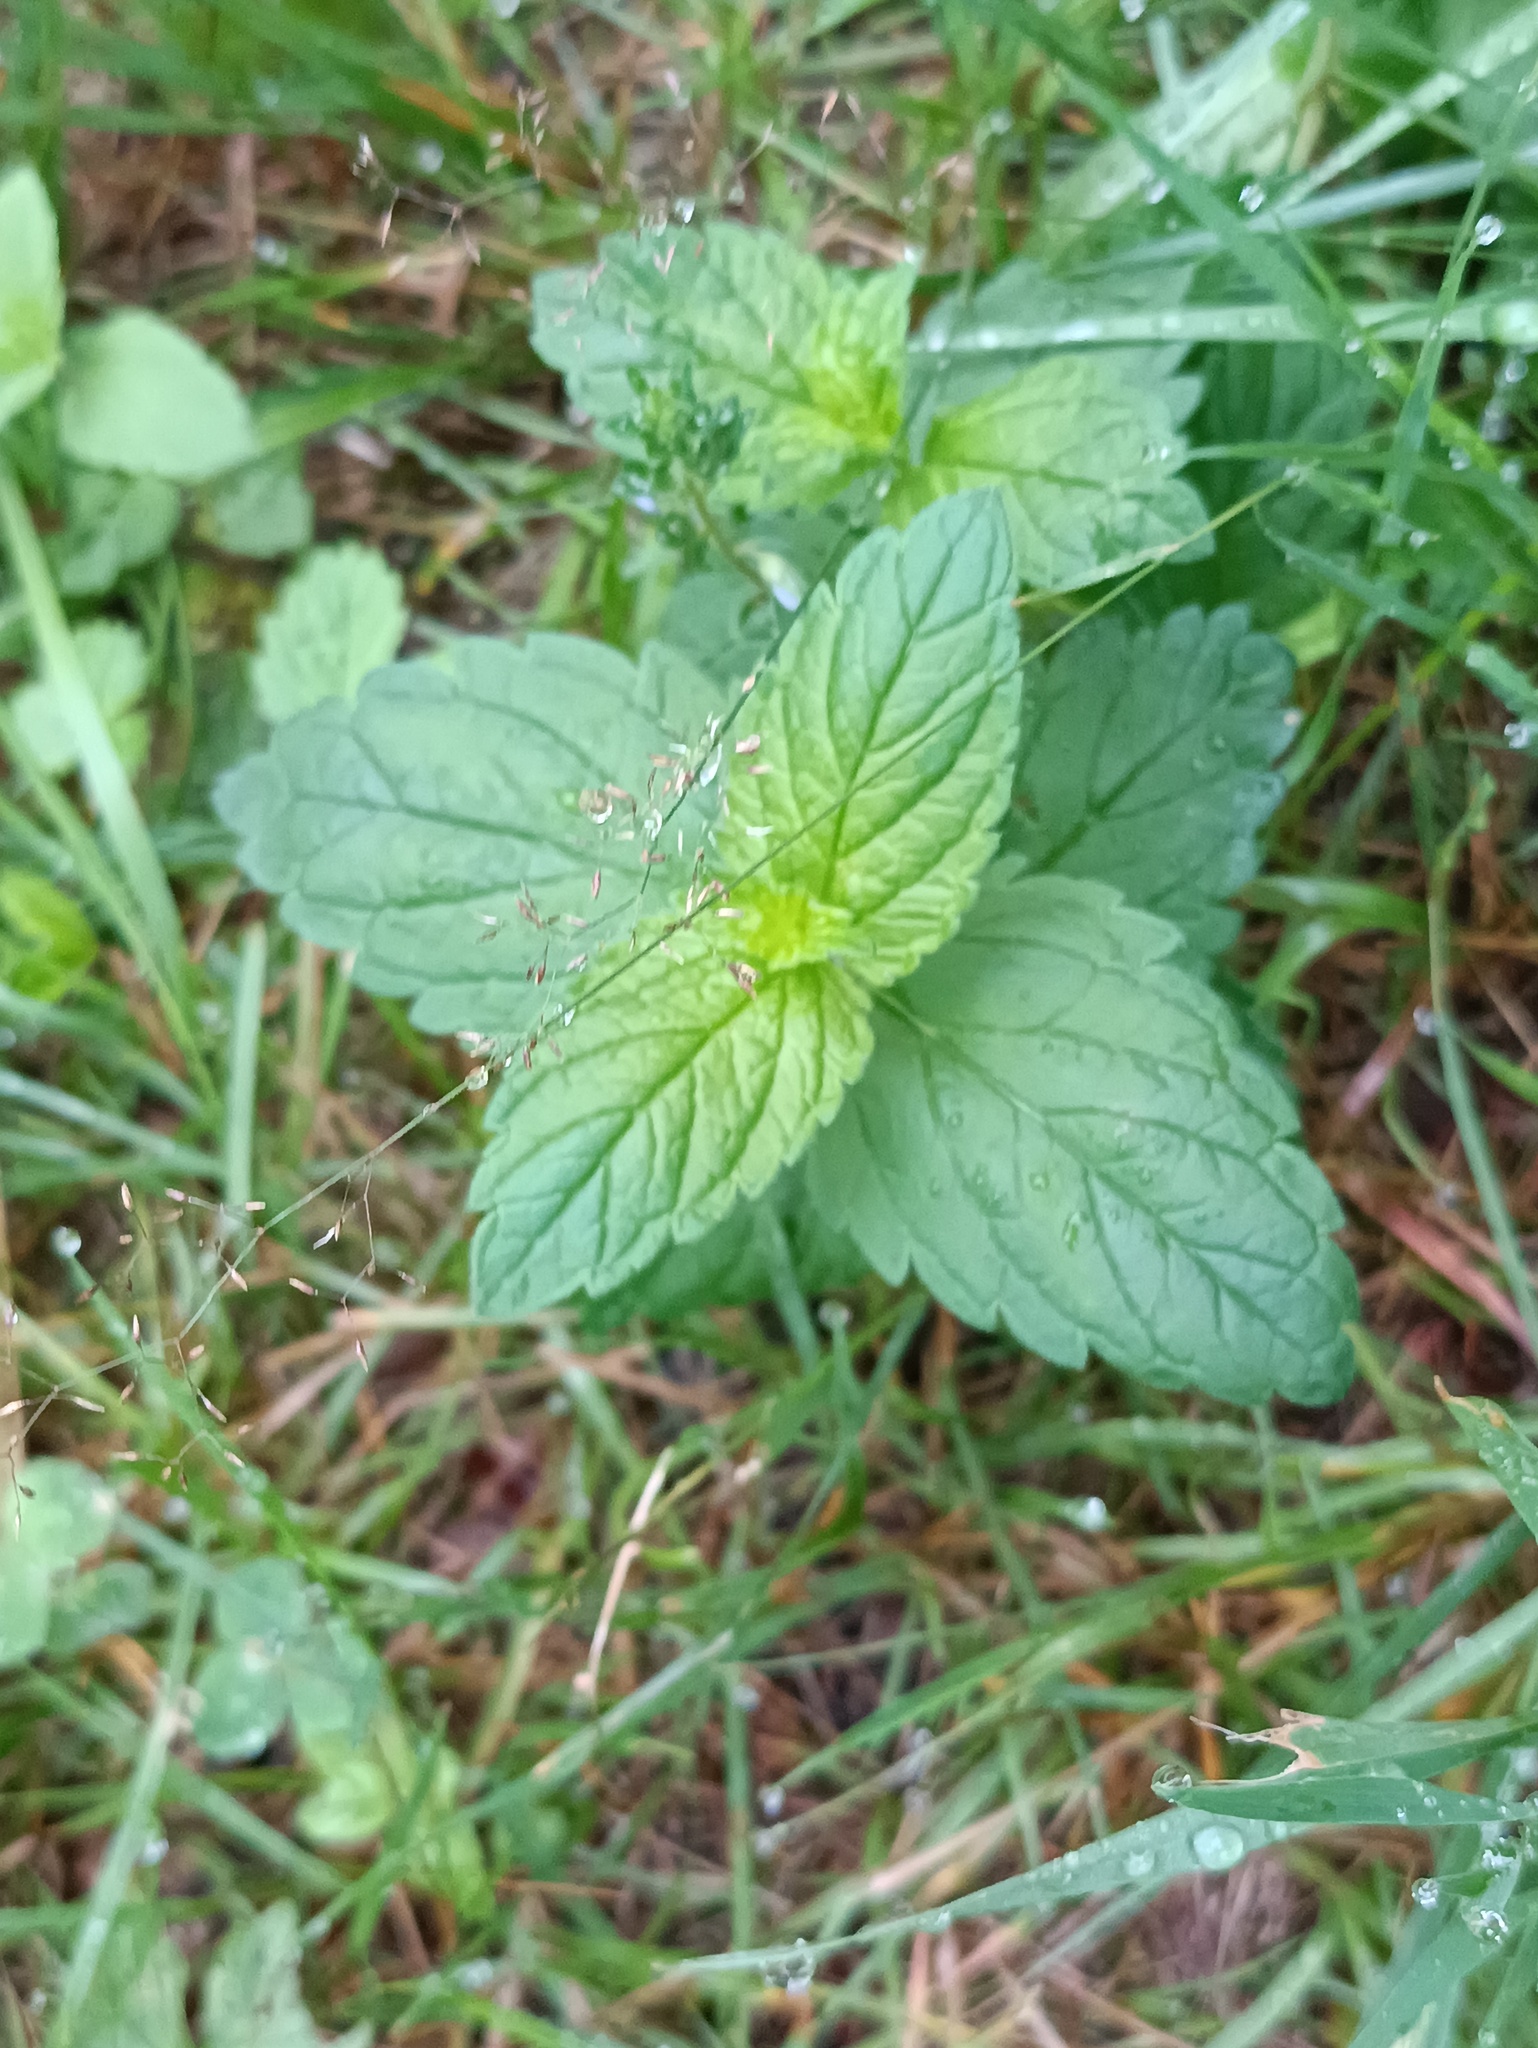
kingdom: Plantae
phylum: Tracheophyta
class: Magnoliopsida
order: Lamiales
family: Plantaginaceae
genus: Veronica
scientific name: Veronica chamaedrys
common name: Germander speedwell
